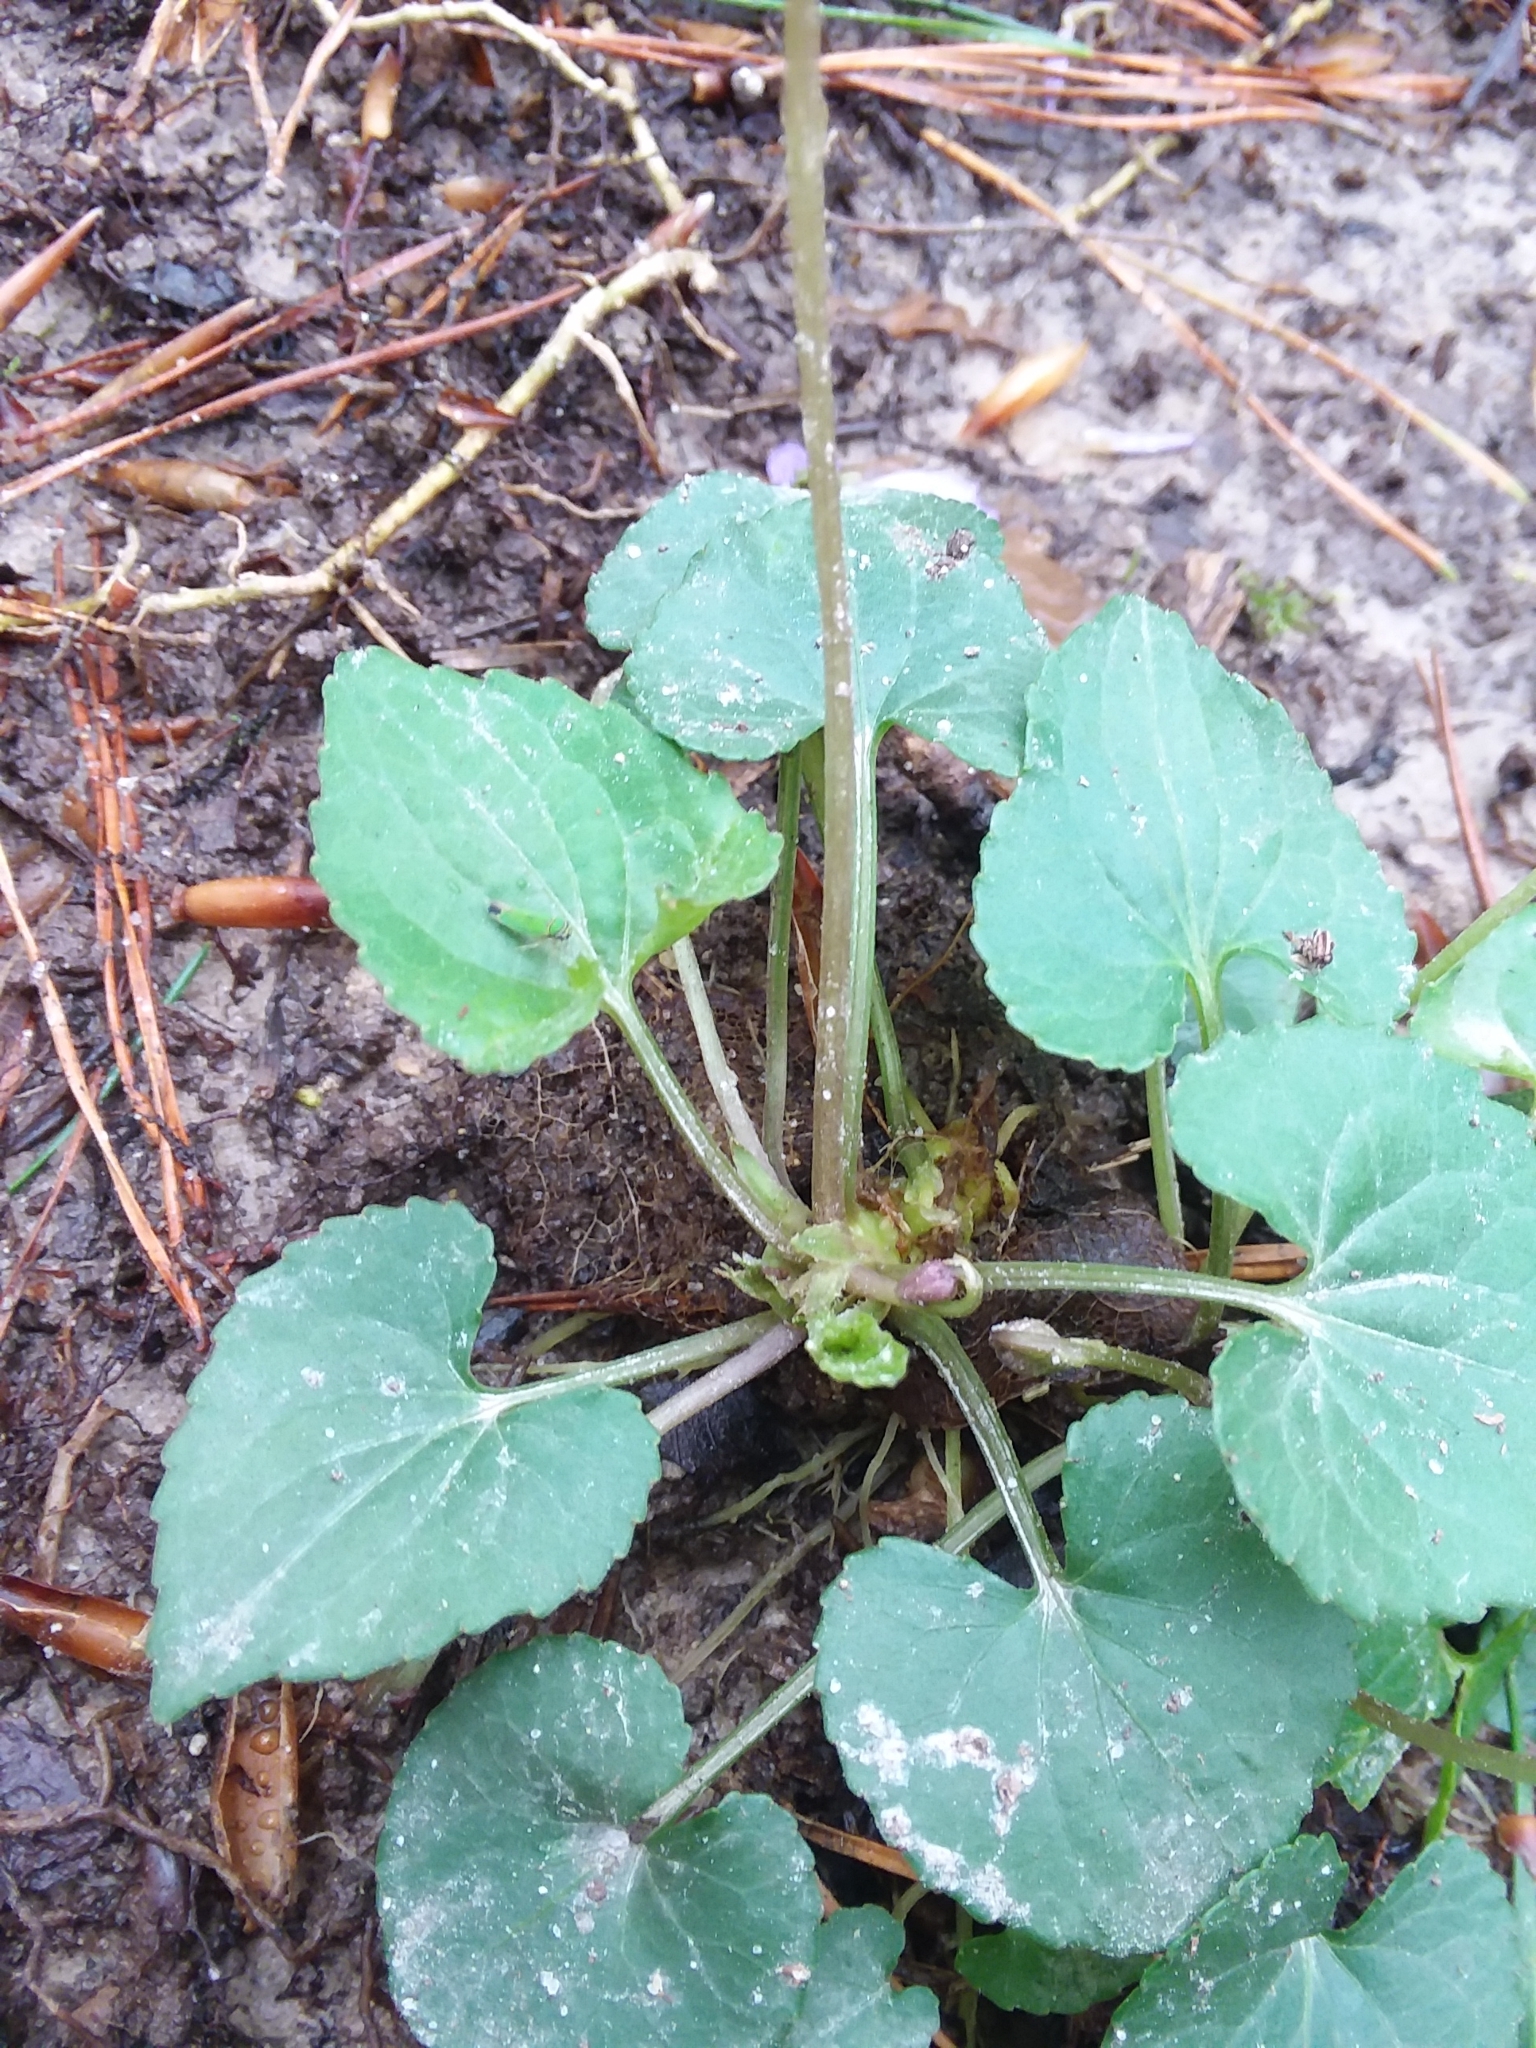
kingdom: Plantae
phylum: Tracheophyta
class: Magnoliopsida
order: Malpighiales
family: Violaceae
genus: Viola
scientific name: Viola sororia
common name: Dooryard violet
